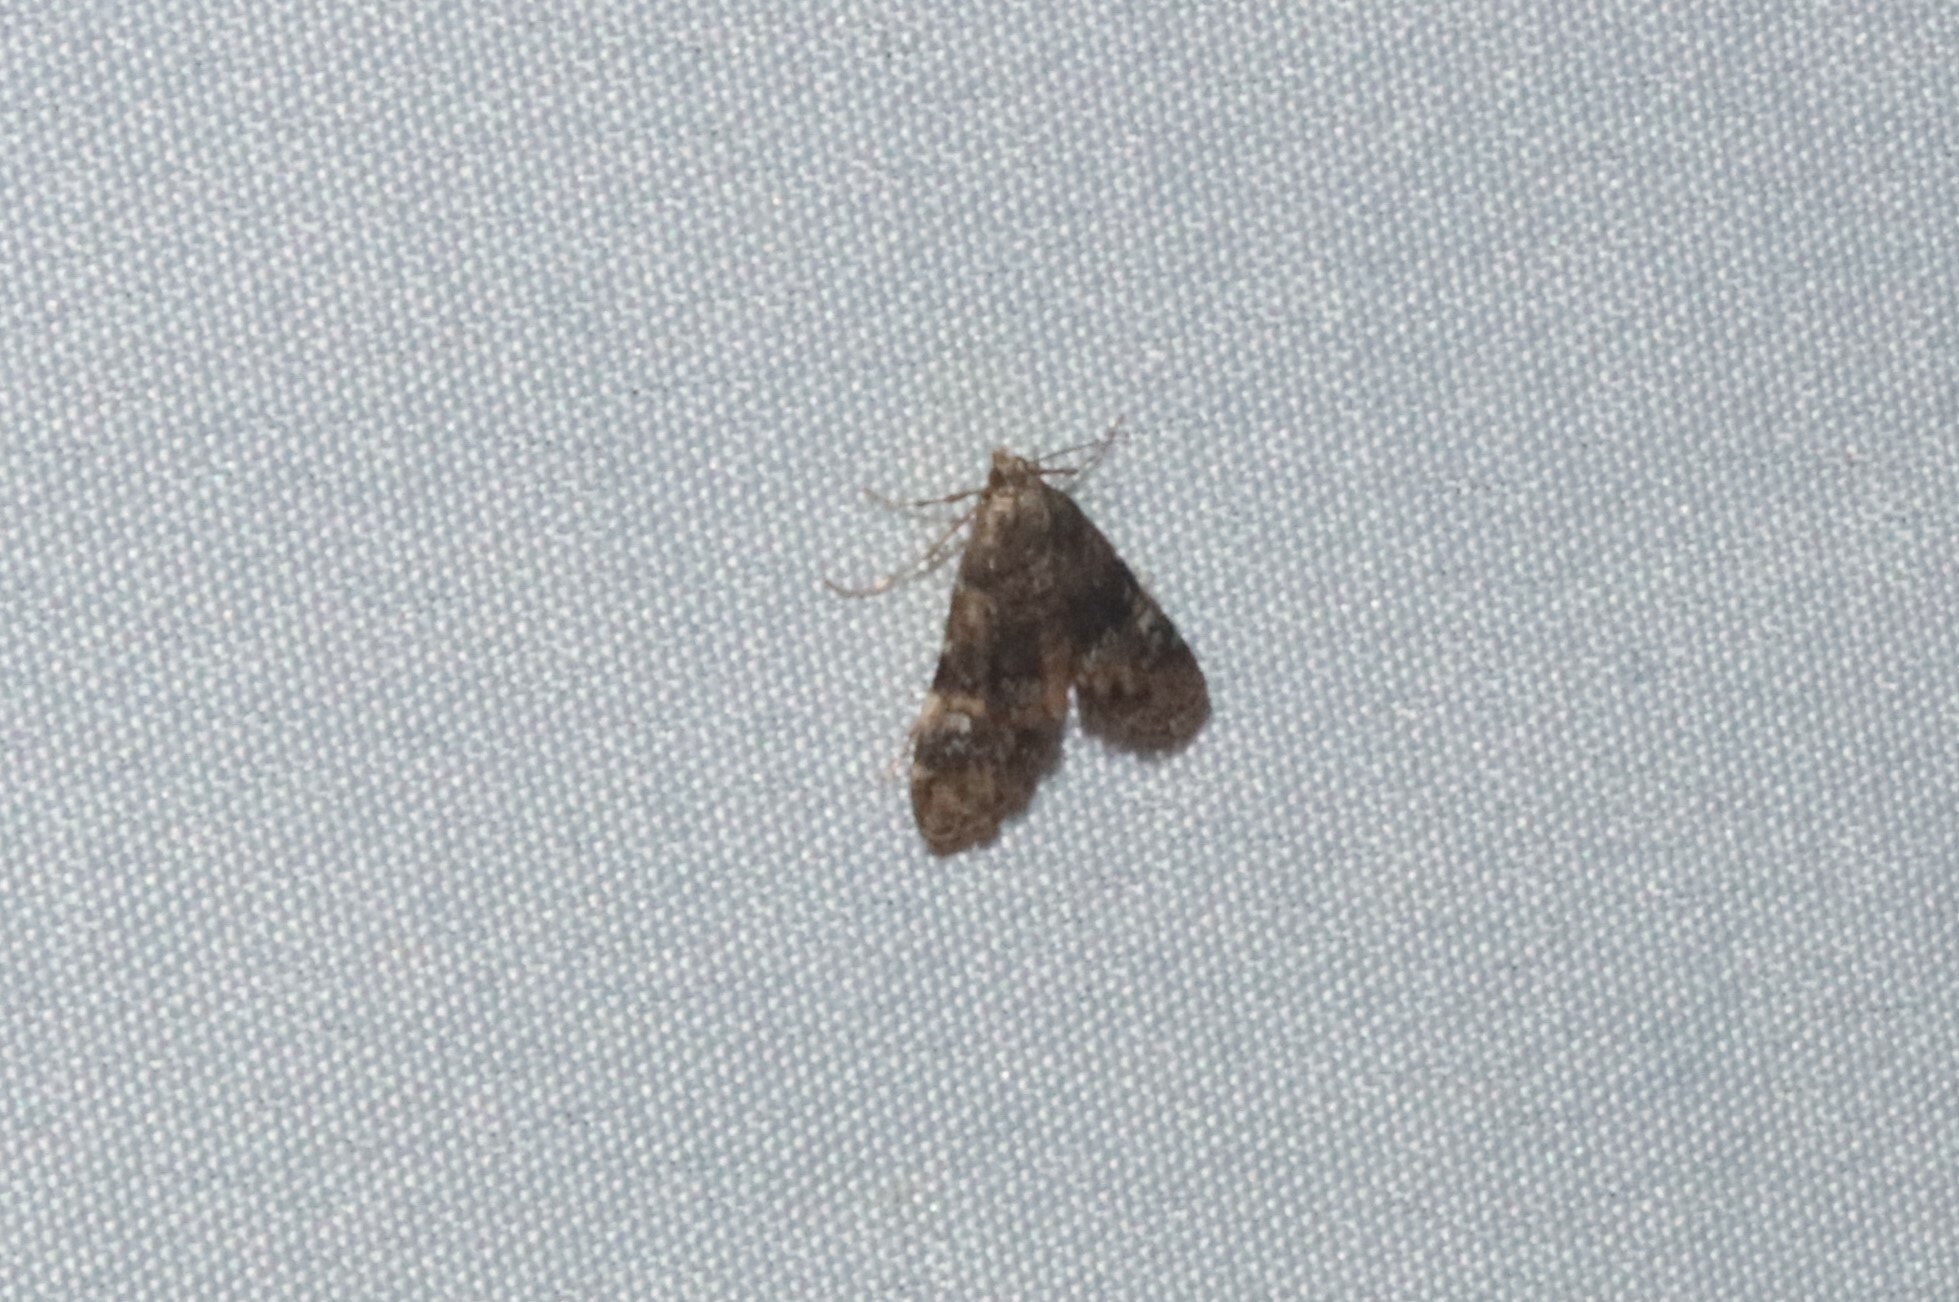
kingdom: Animalia
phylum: Arthropoda
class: Insecta
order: Lepidoptera
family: Crambidae
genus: Elophila
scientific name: Elophila obliteralis
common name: Waterlily leafcutter moth
